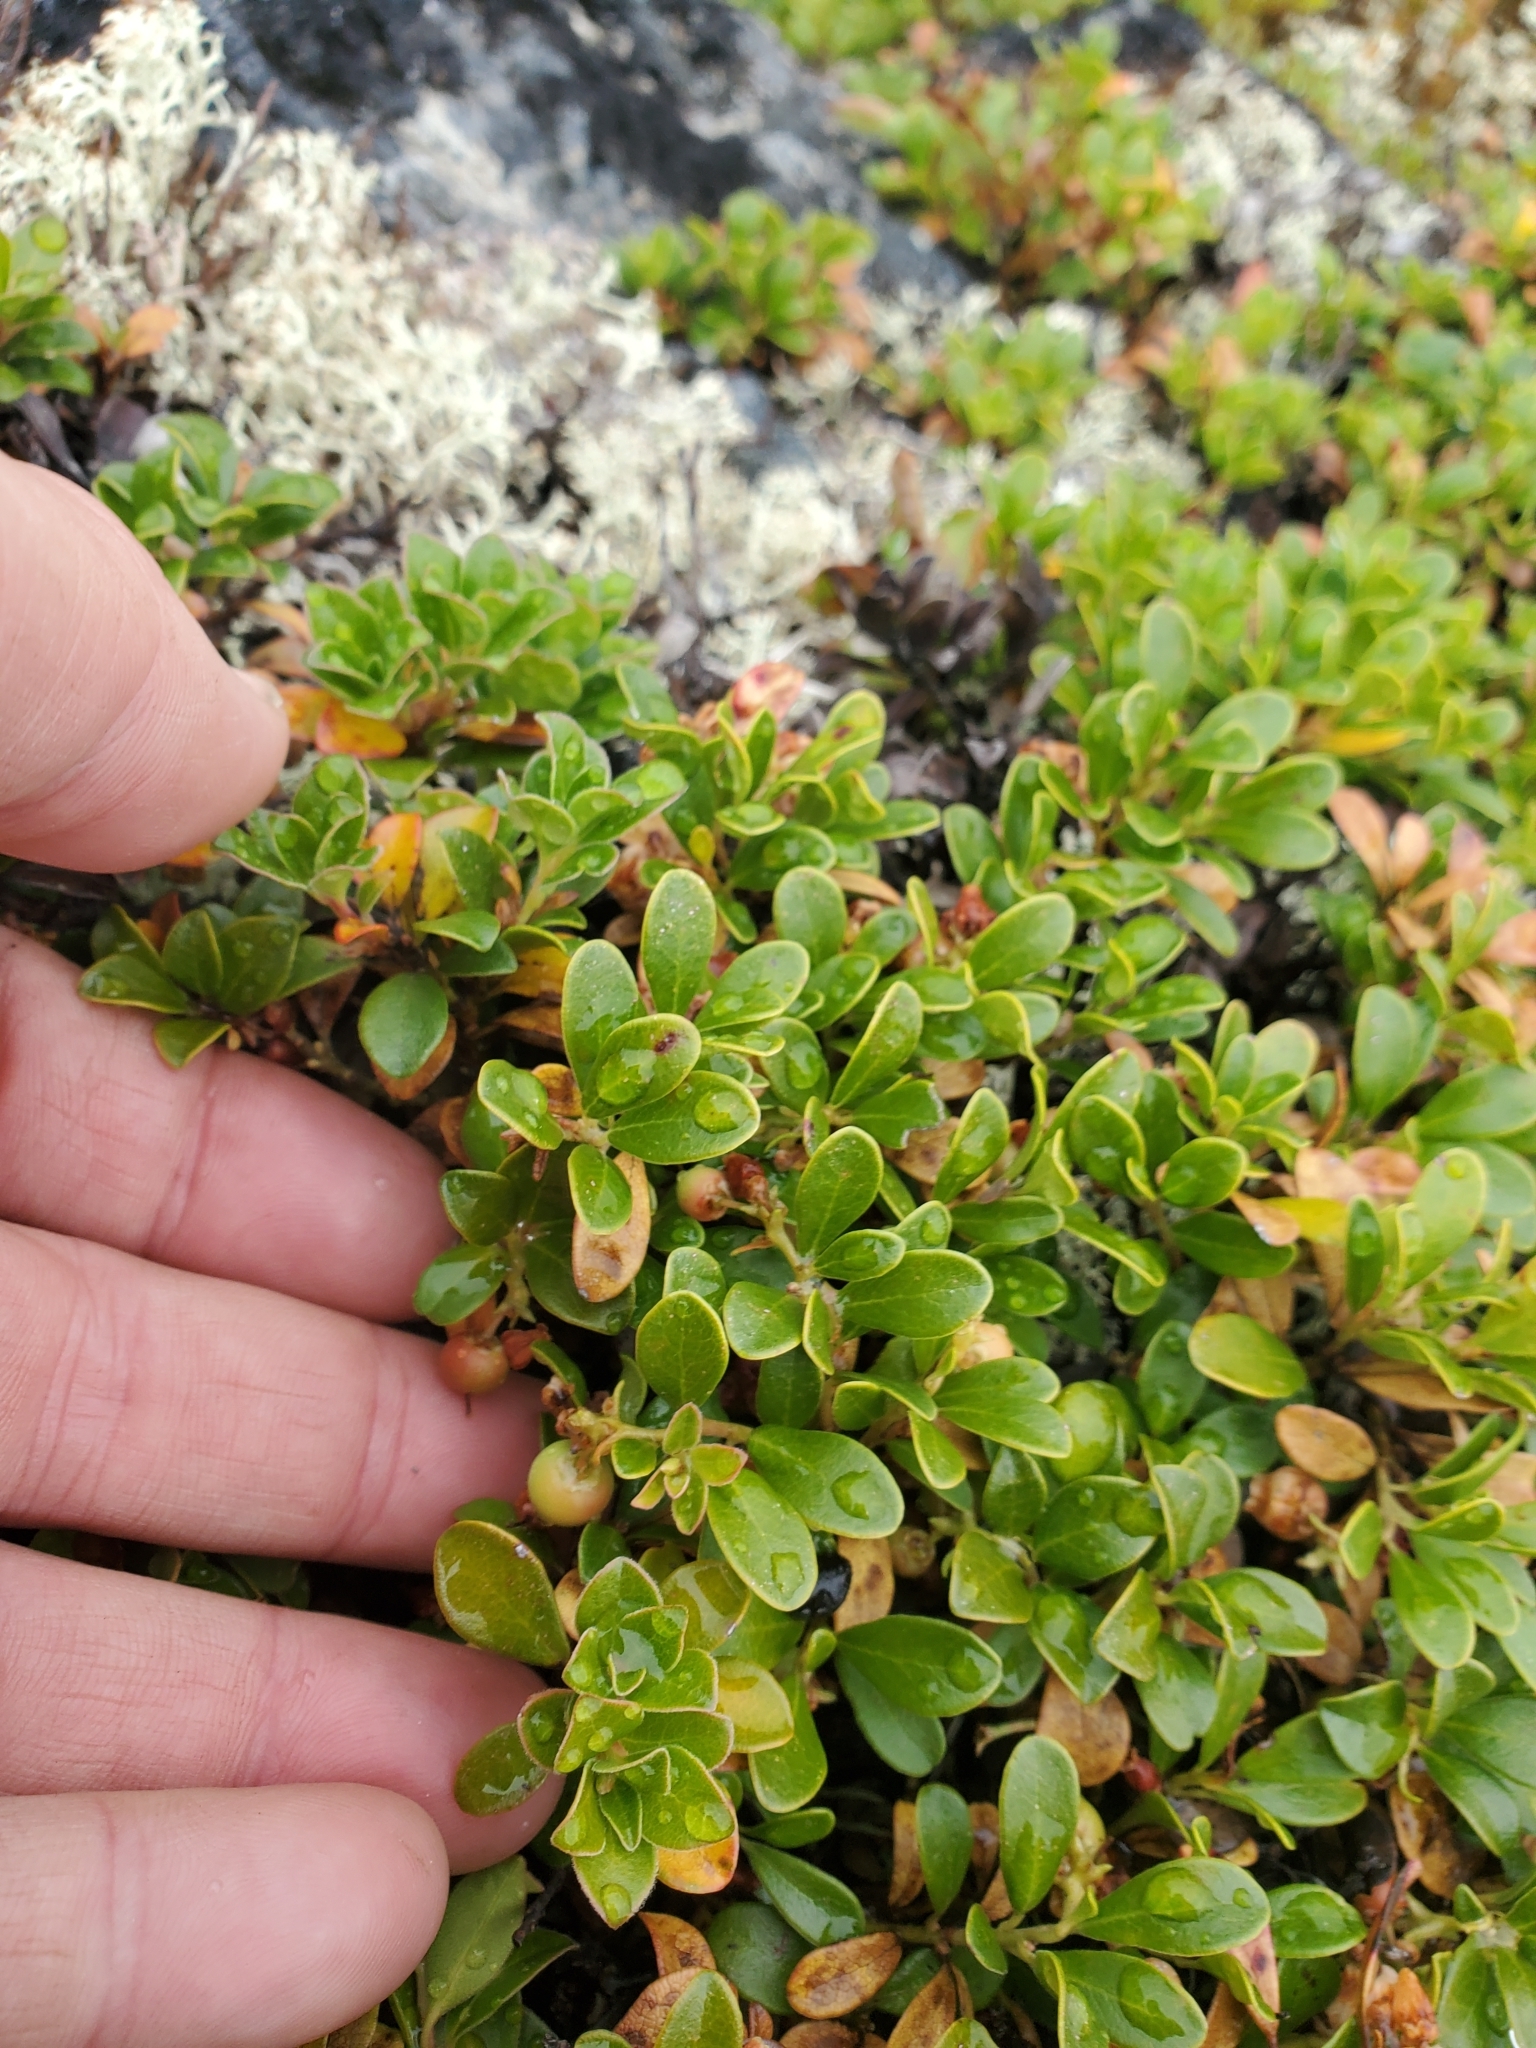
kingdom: Plantae
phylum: Tracheophyta
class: Magnoliopsida
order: Ericales
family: Ericaceae
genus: Arctostaphylos
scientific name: Arctostaphylos uva-ursi
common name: Bearberry
